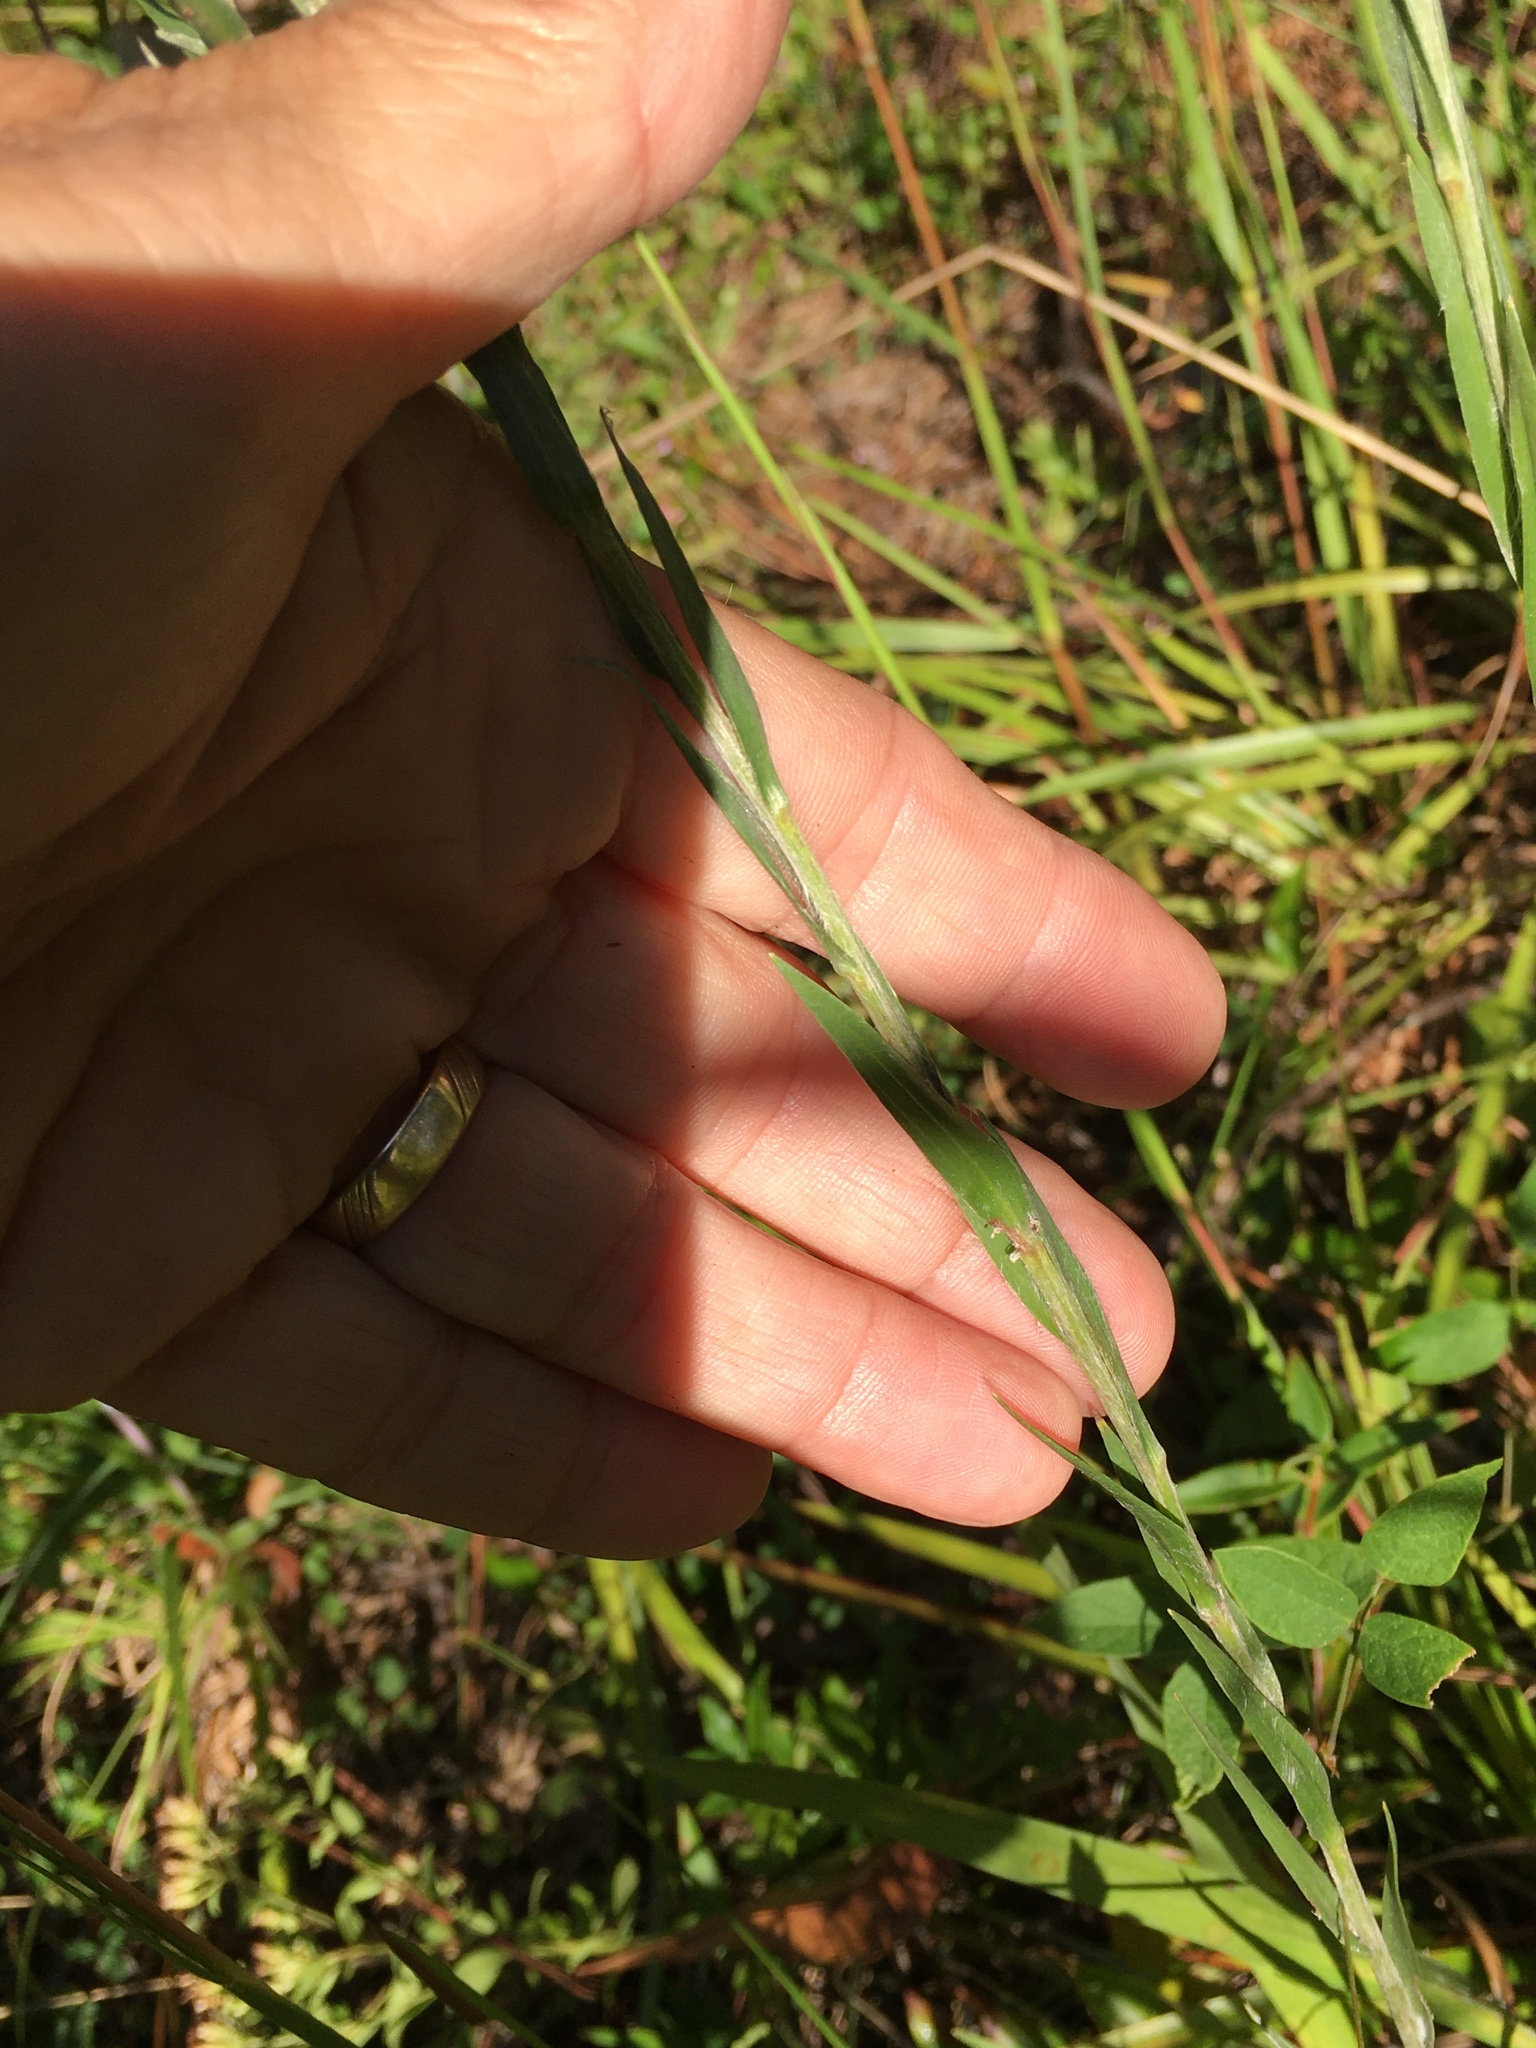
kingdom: Plantae
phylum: Tracheophyta
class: Magnoliopsida
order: Asterales
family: Asteraceae
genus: Pityopsis
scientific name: Pityopsis aspera
